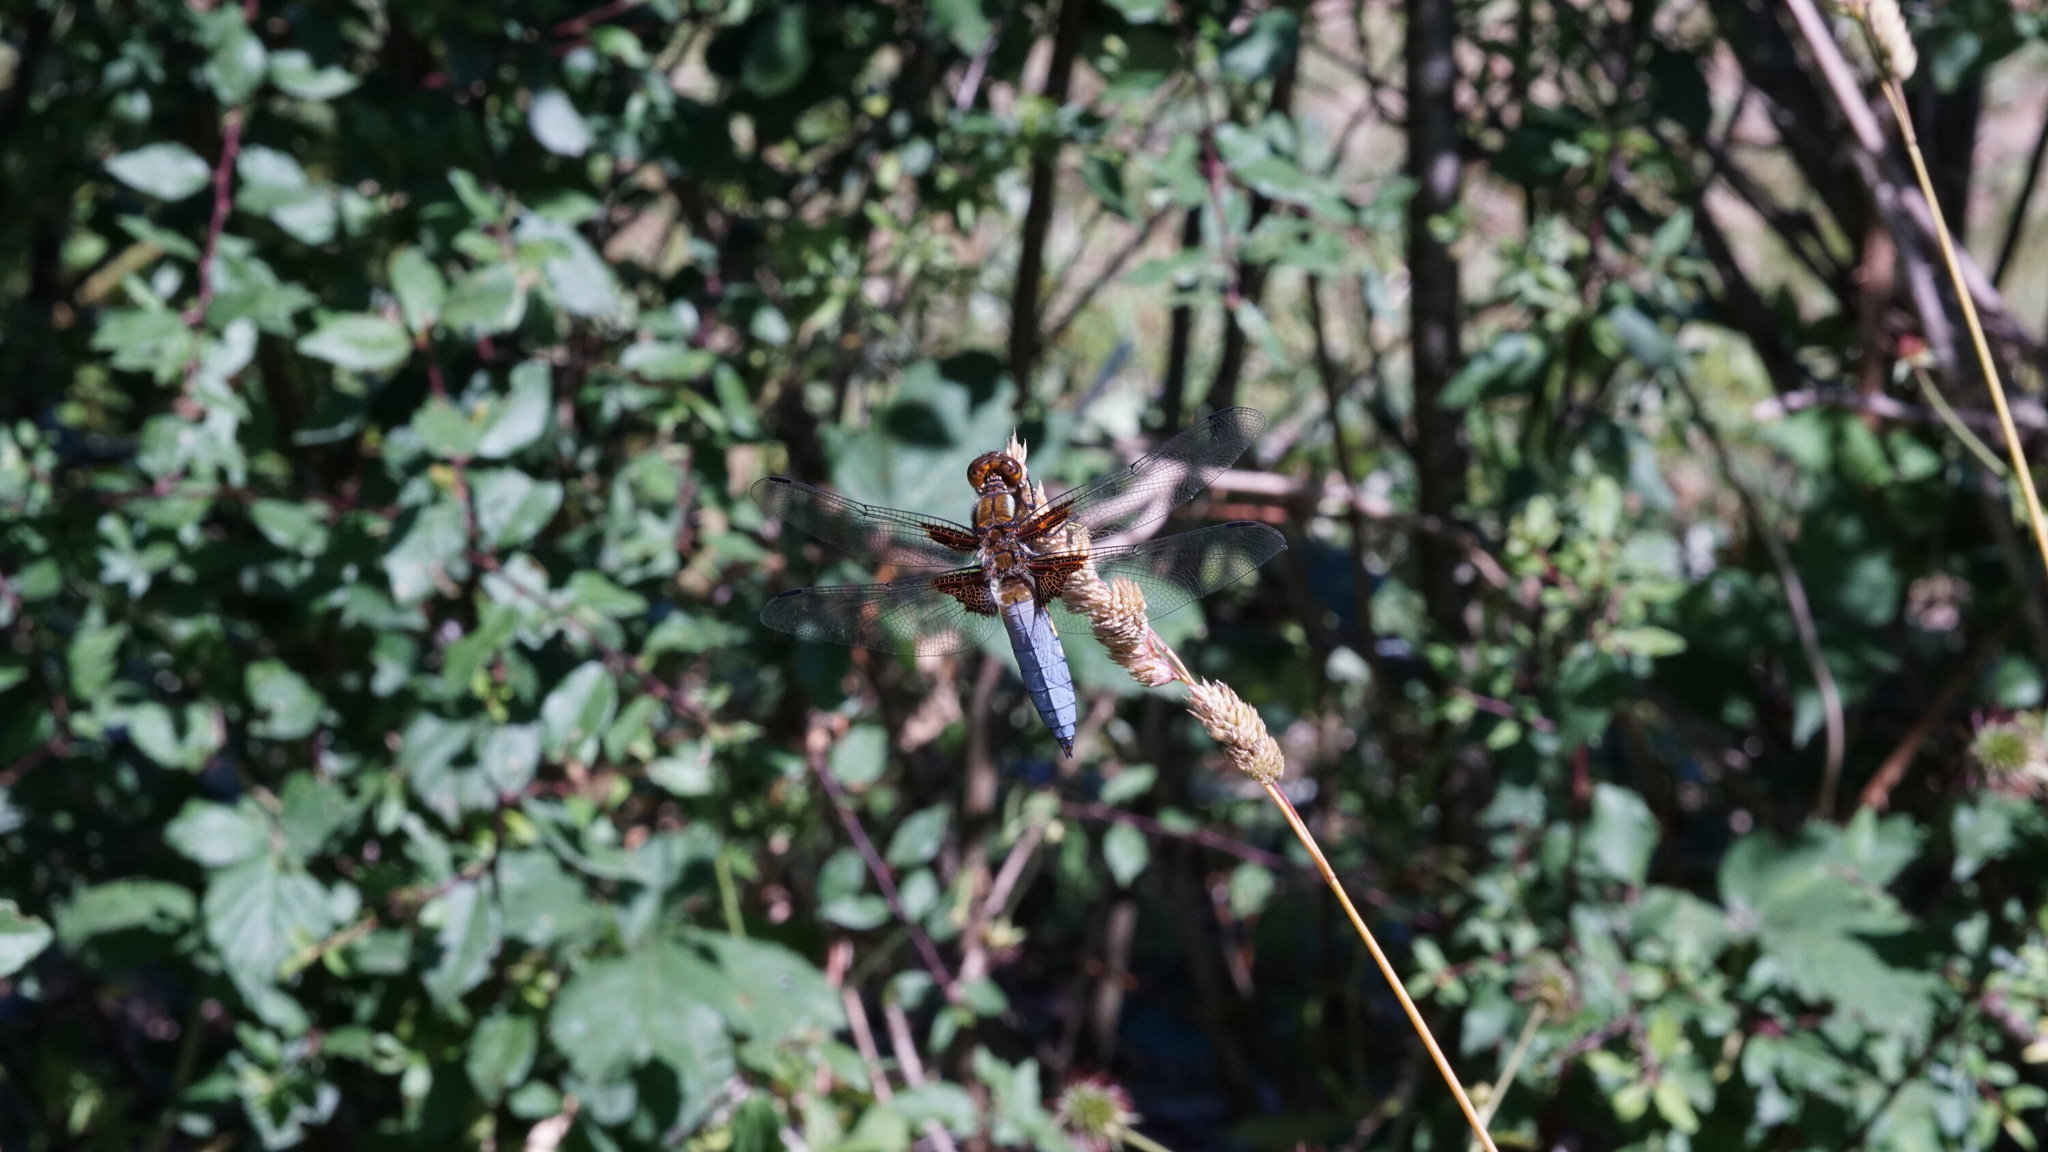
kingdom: Animalia
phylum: Arthropoda
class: Insecta
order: Odonata
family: Libellulidae
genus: Libellula
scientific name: Libellula depressa
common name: Broad-bodied chaser
